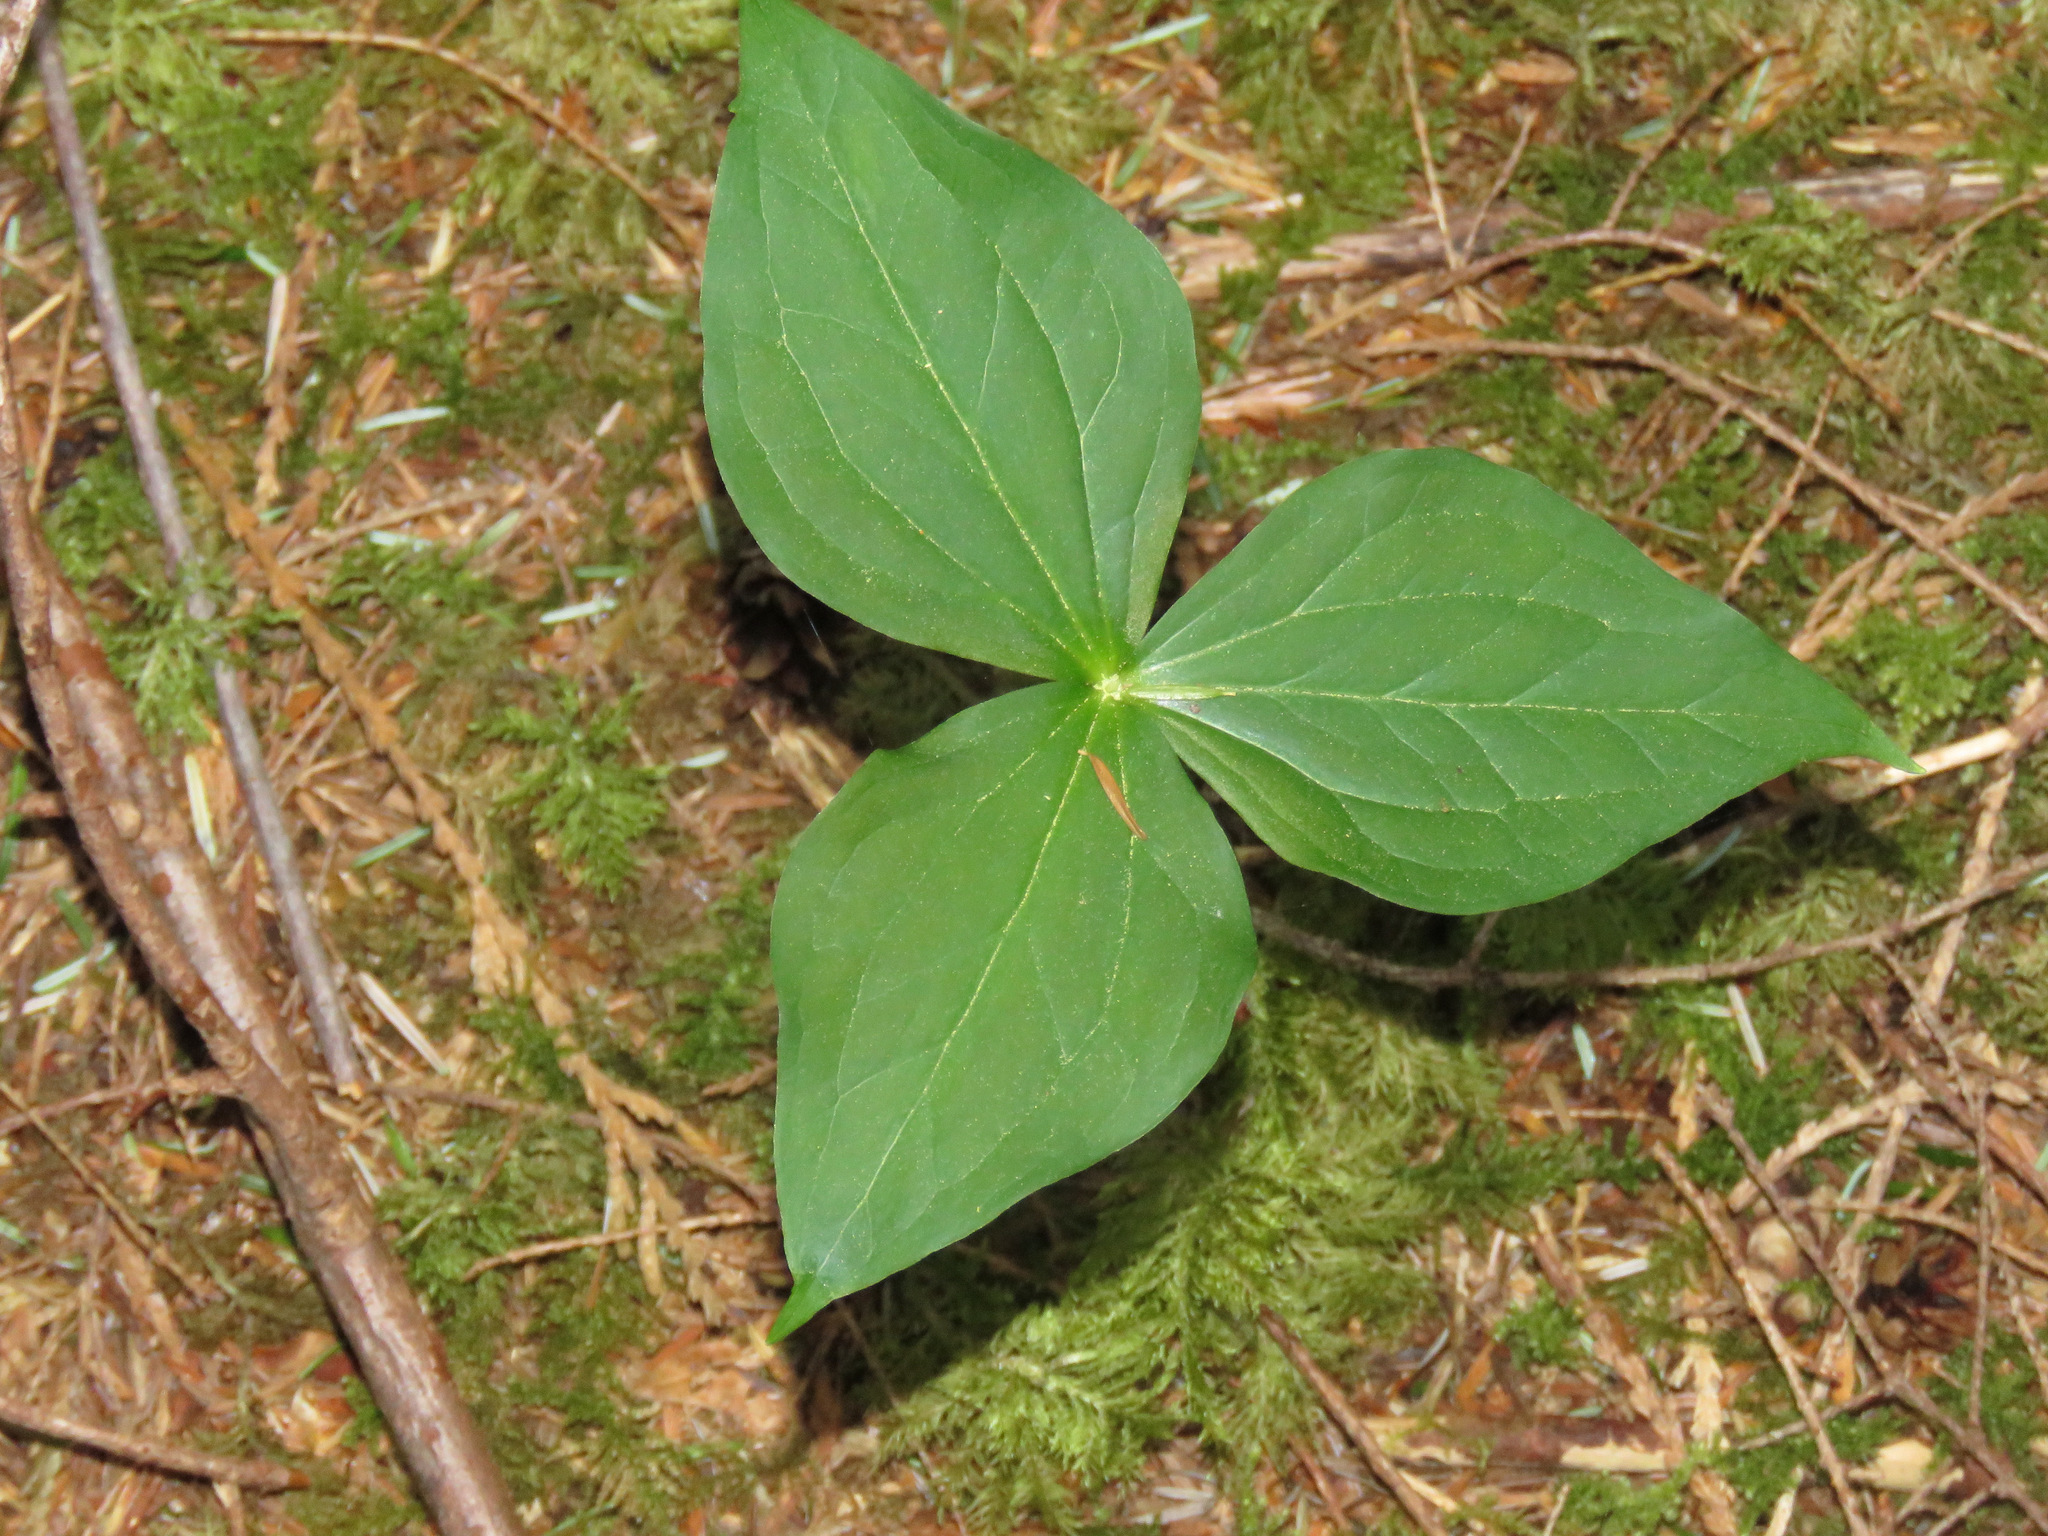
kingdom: Plantae
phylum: Tracheophyta
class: Liliopsida
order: Liliales
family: Melanthiaceae
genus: Trillium
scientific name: Trillium ovatum
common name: Pacific trillium
